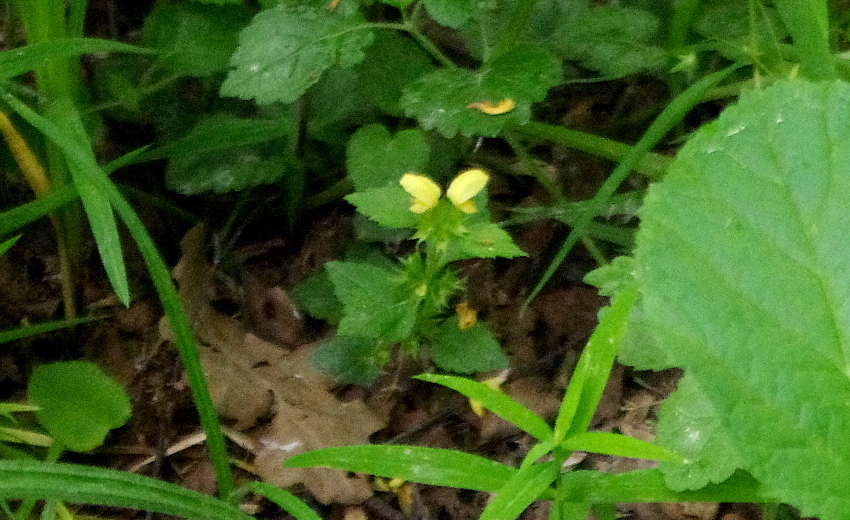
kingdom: Plantae
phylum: Tracheophyta
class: Magnoliopsida
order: Lamiales
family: Lamiaceae
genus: Lamium
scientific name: Lamium galeobdolon
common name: Yellow archangel
